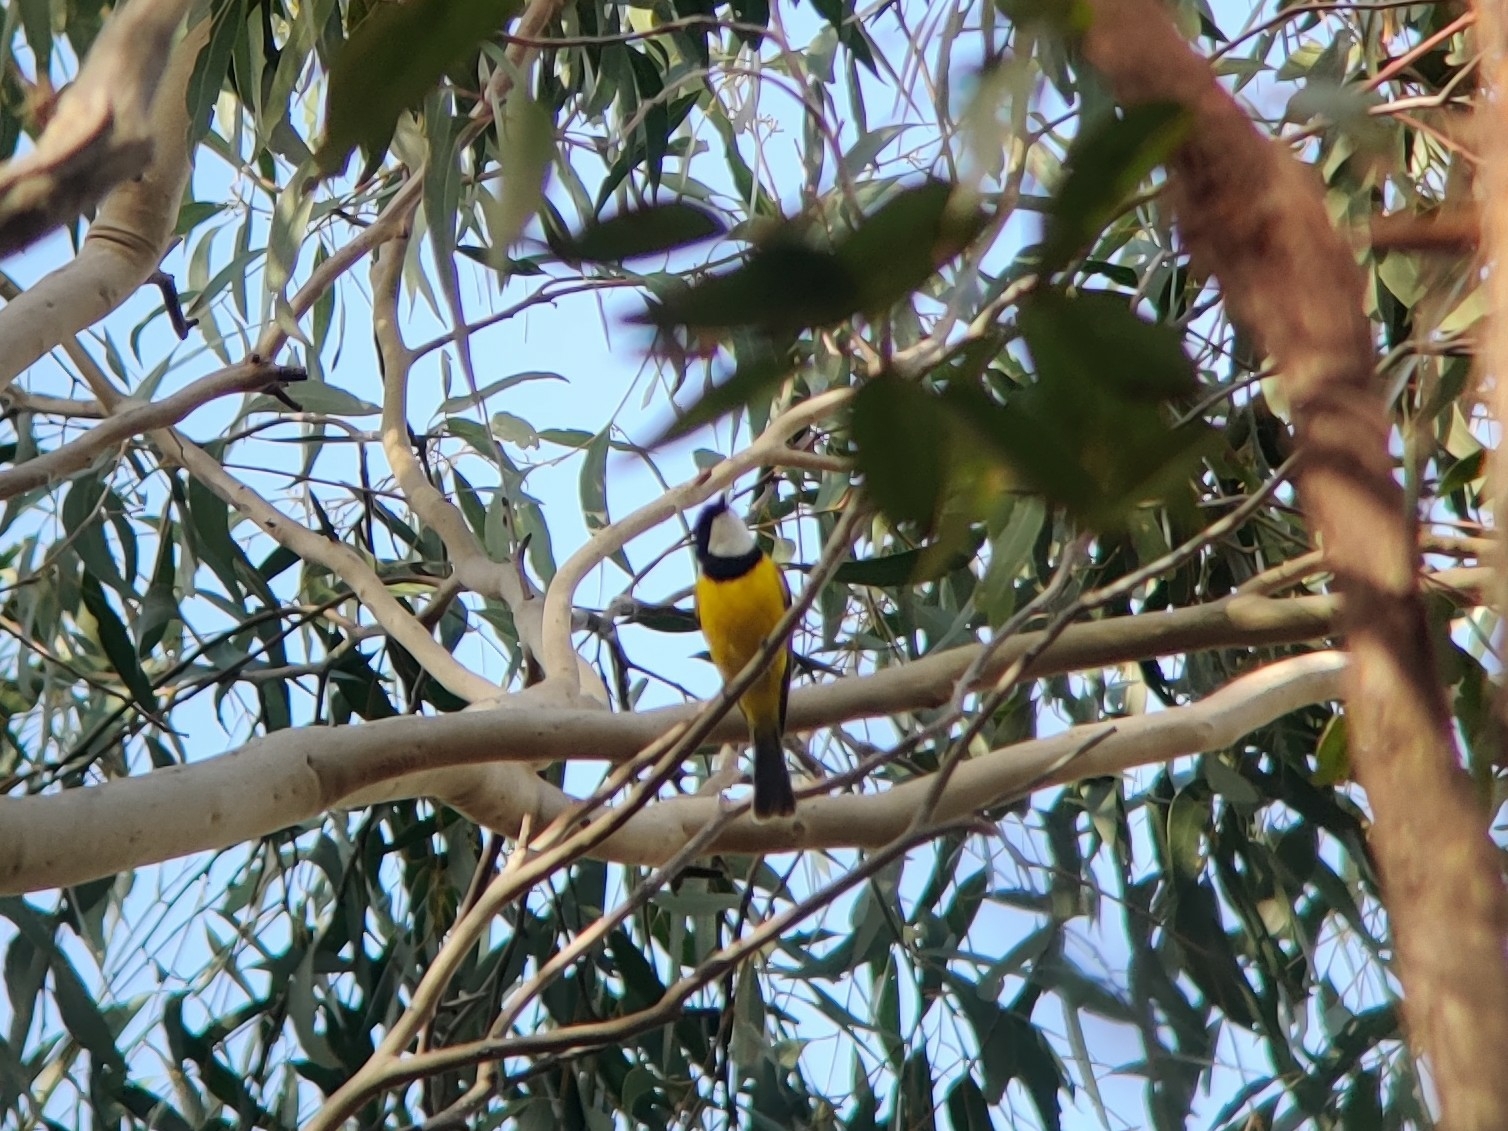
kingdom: Animalia
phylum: Chordata
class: Aves
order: Passeriformes
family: Pachycephalidae
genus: Pachycephala
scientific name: Pachycephala pectoralis
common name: Australian golden whistler
